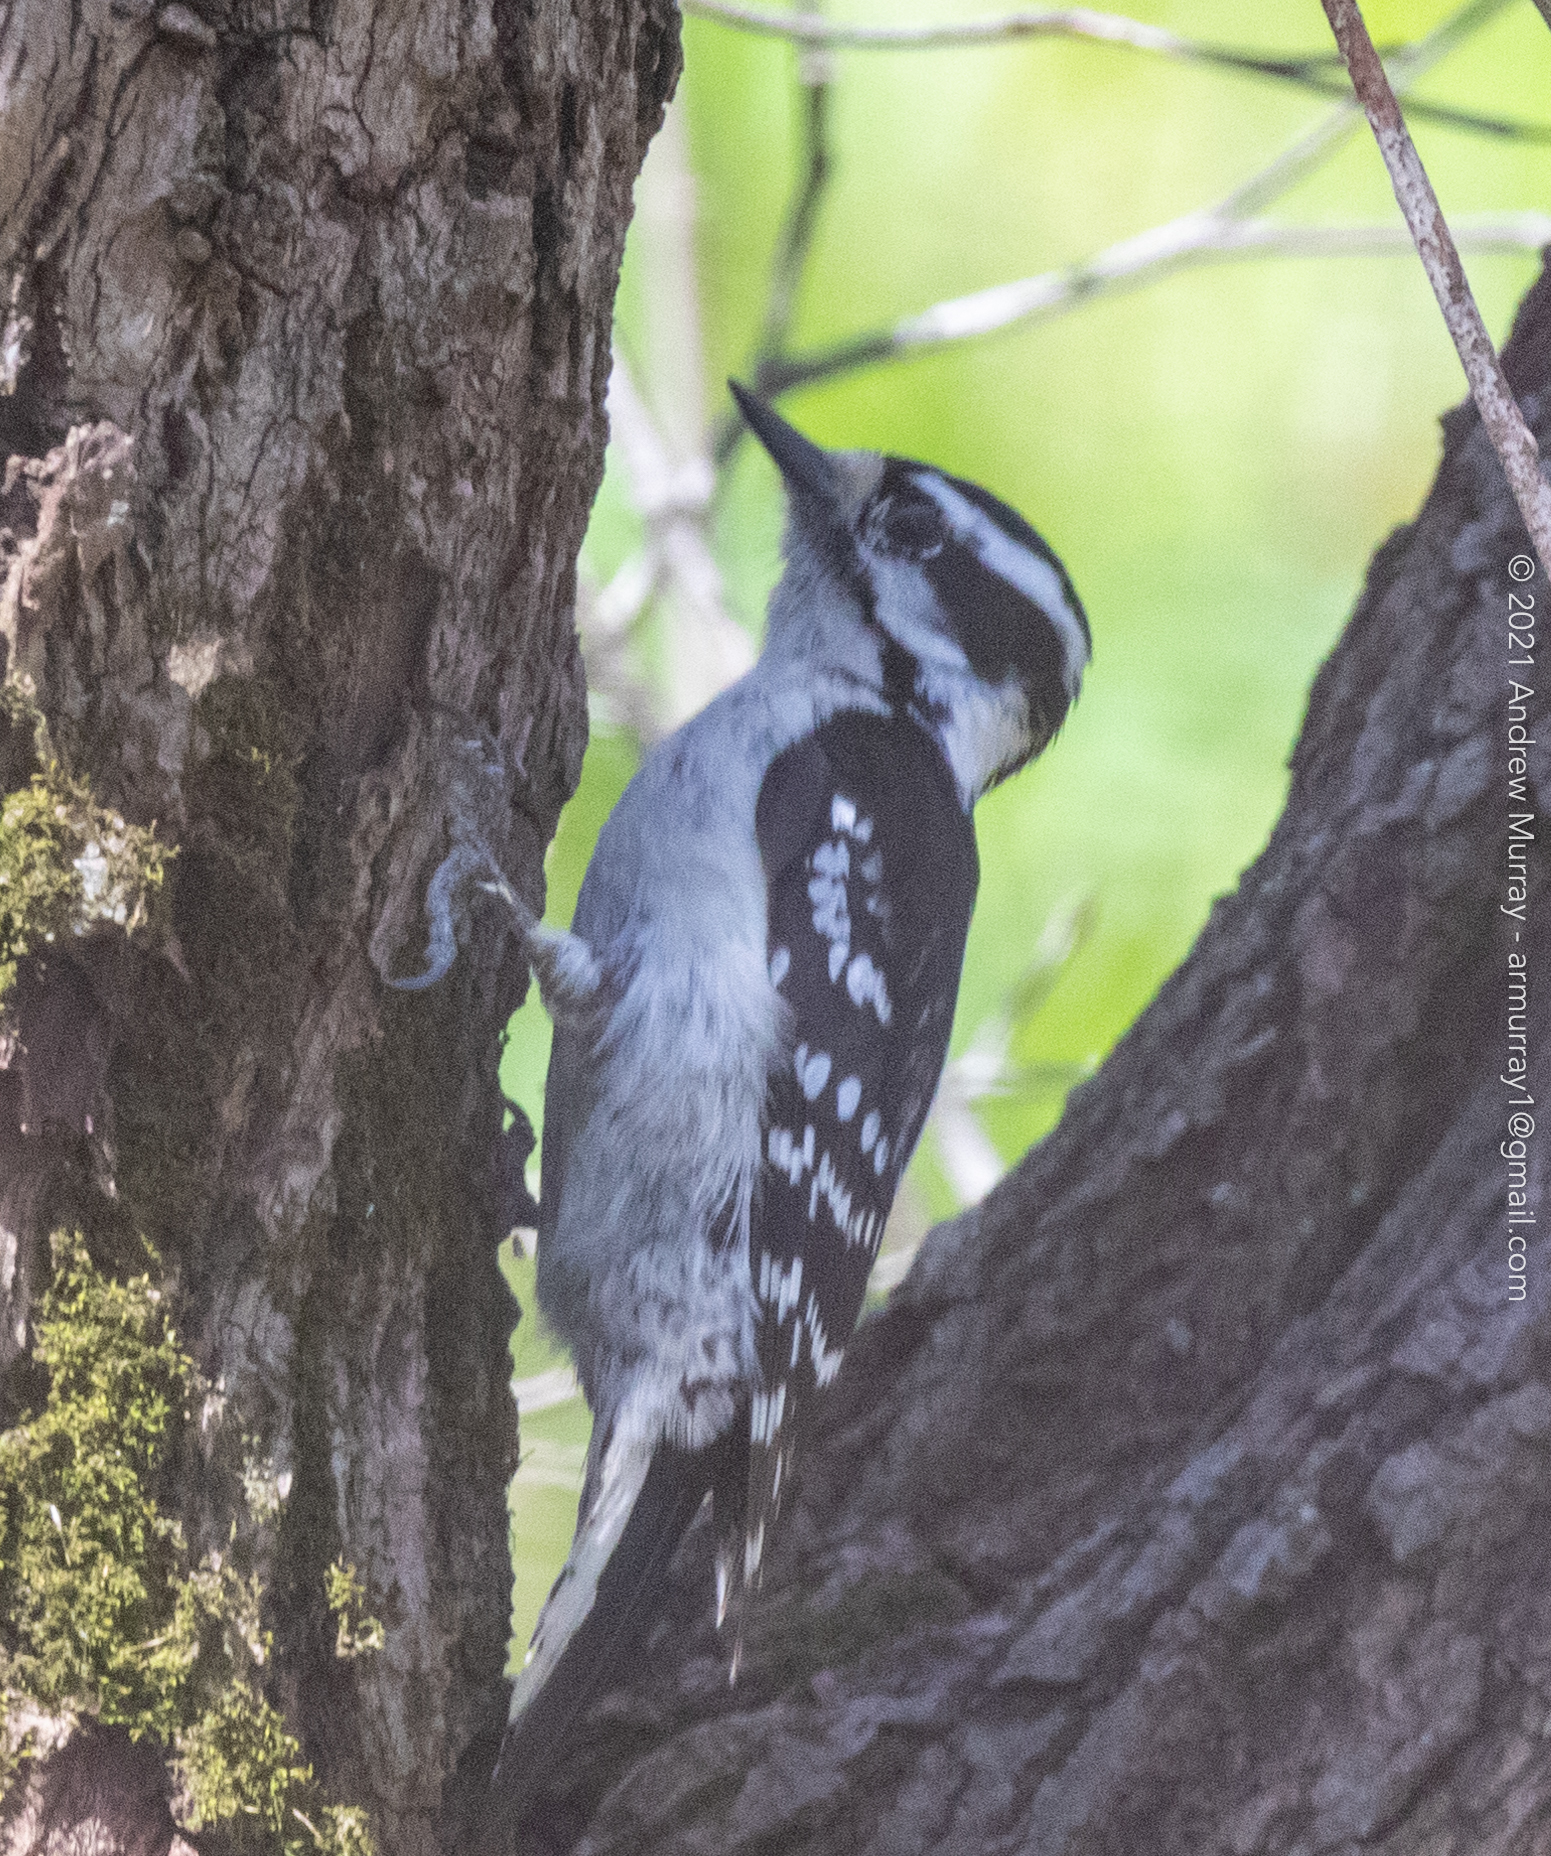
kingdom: Animalia
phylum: Chordata
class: Aves
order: Piciformes
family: Picidae
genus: Dryobates
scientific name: Dryobates pubescens
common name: Downy woodpecker
